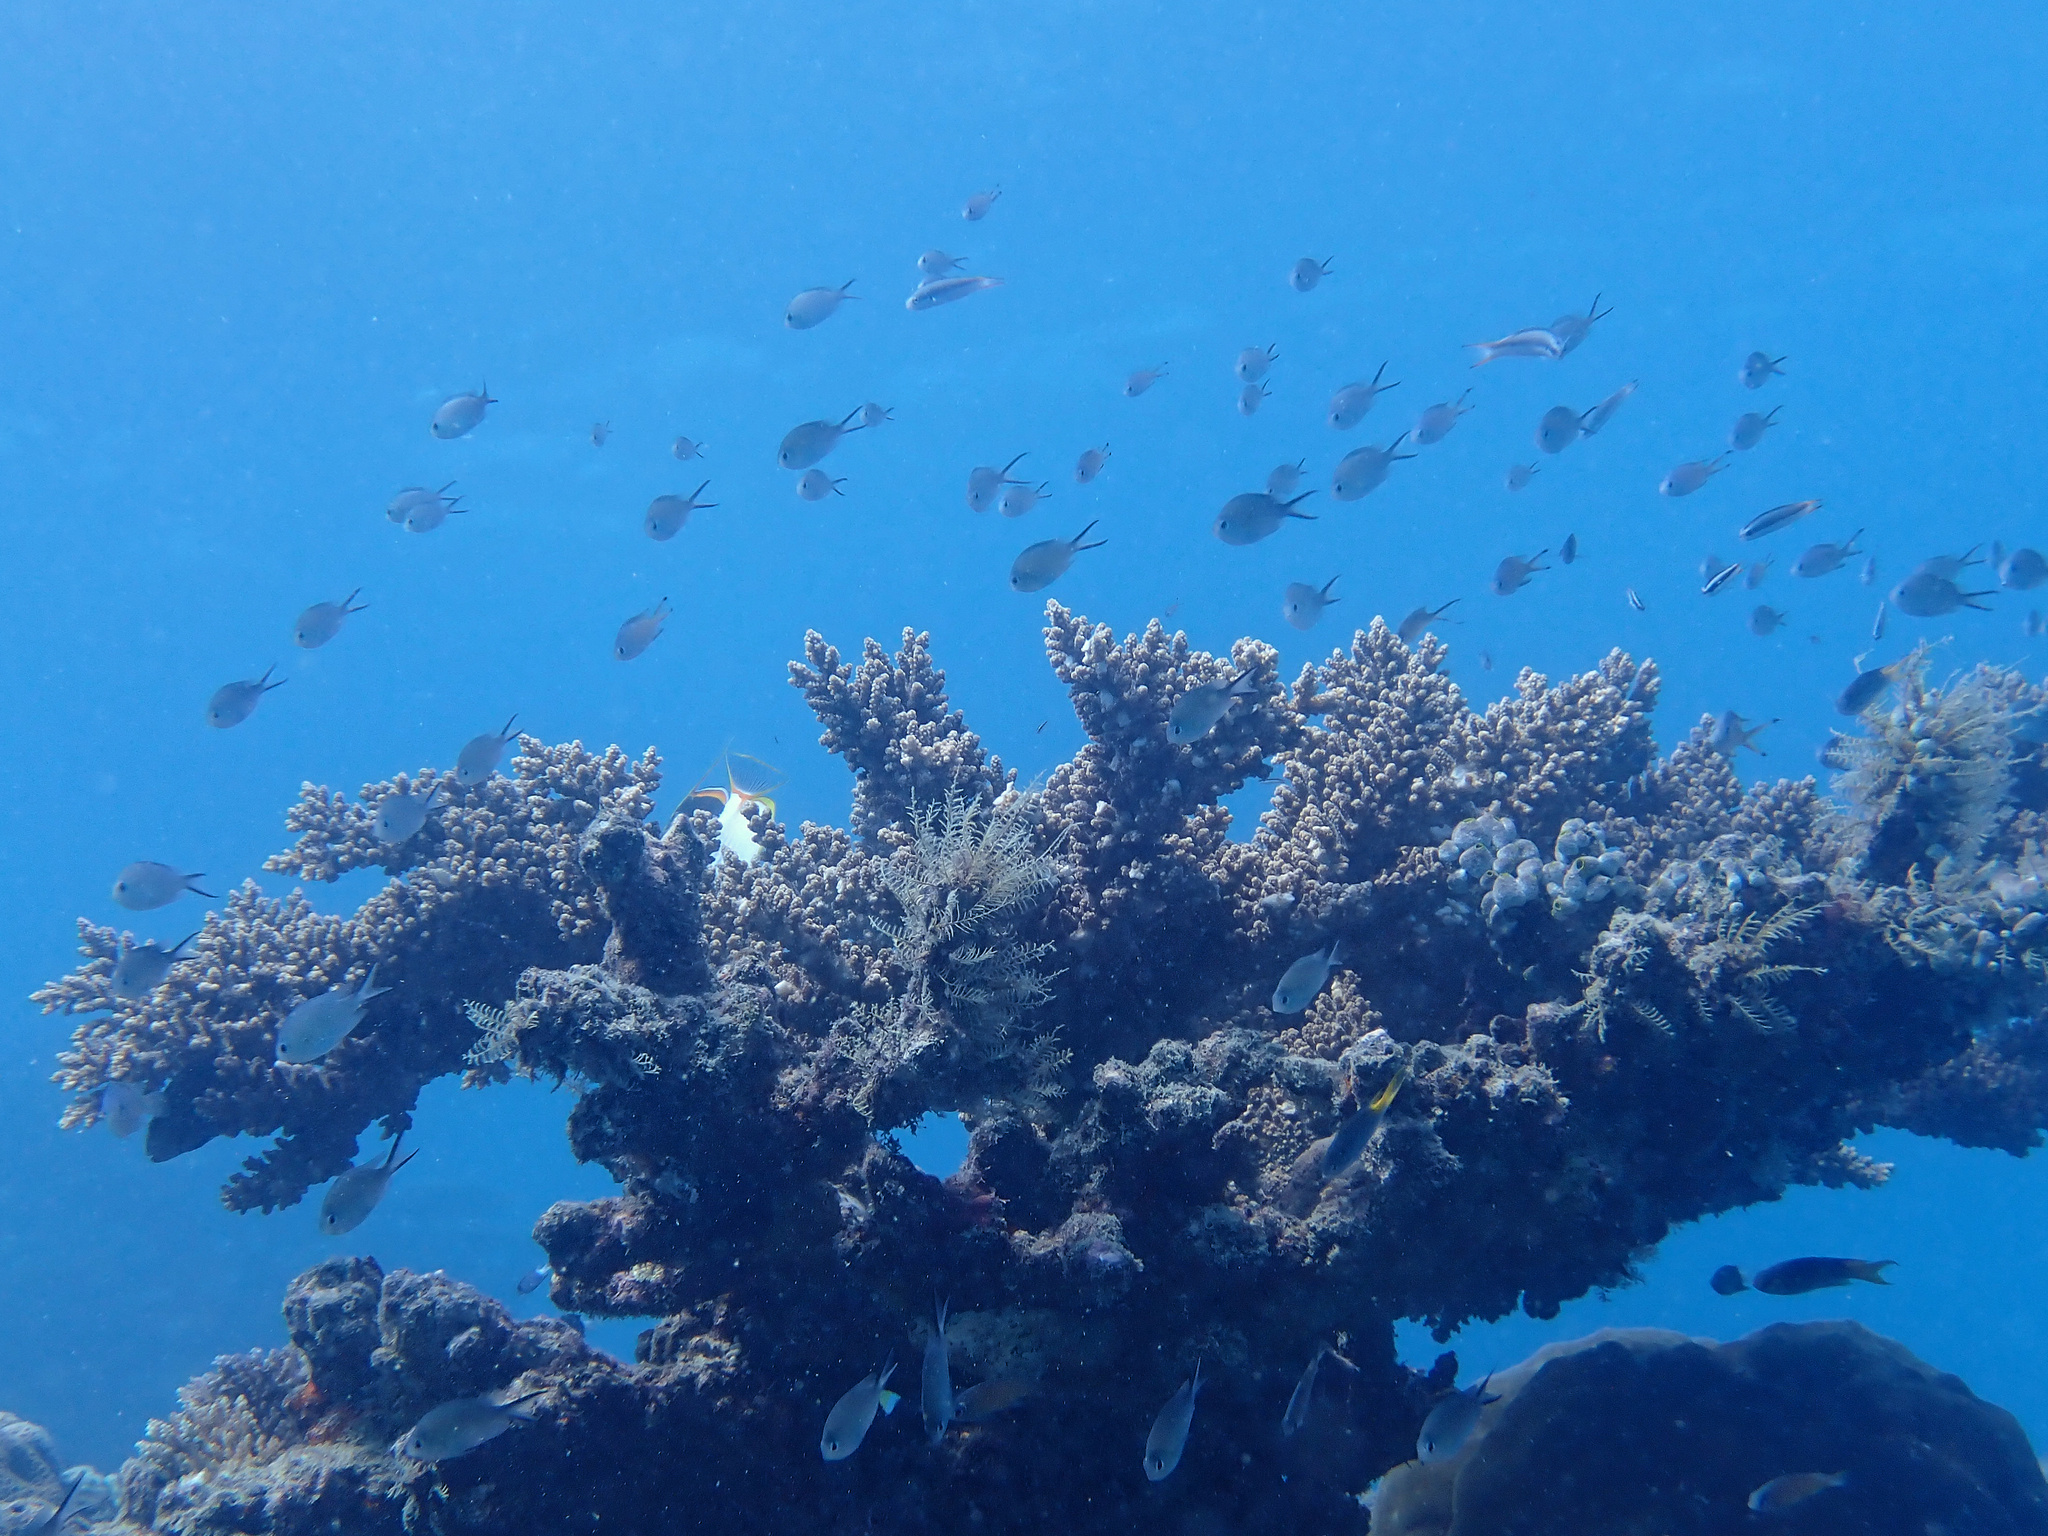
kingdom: Animalia
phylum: Cnidaria
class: Anthozoa
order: Scleractinia
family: Acroporidae
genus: Acropora
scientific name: Acropora florida
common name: Branch coral
